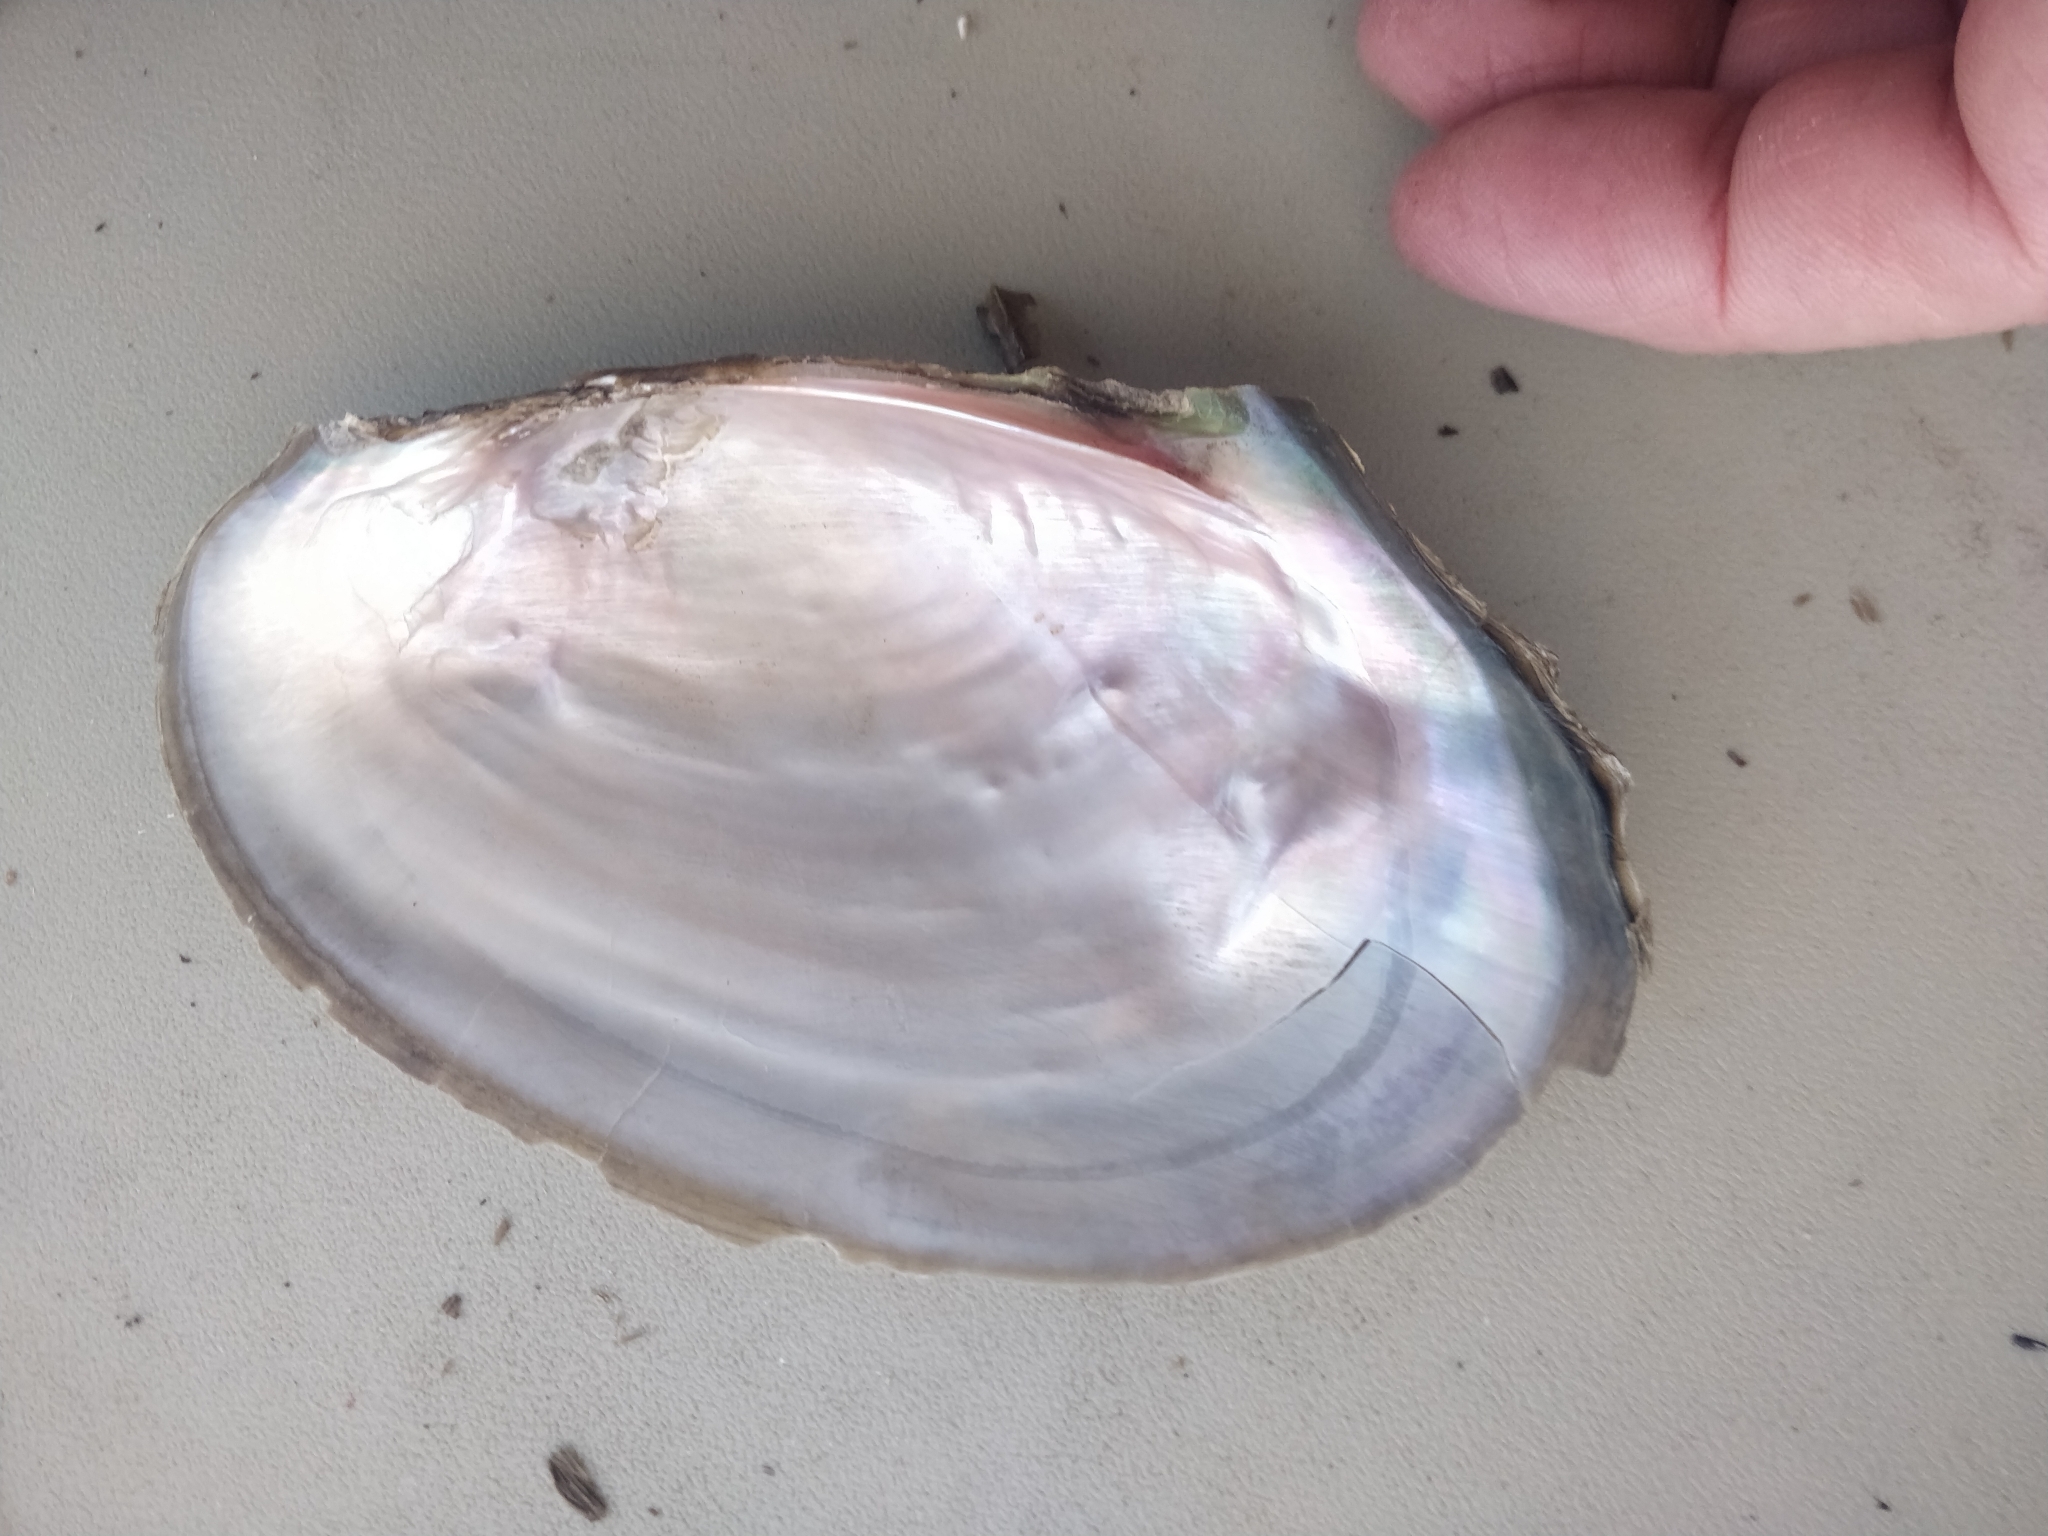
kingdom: Animalia
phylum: Mollusca
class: Bivalvia
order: Unionida
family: Unionidae
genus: Potamilus
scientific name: Potamilus fragilis
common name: Fragile papershell
